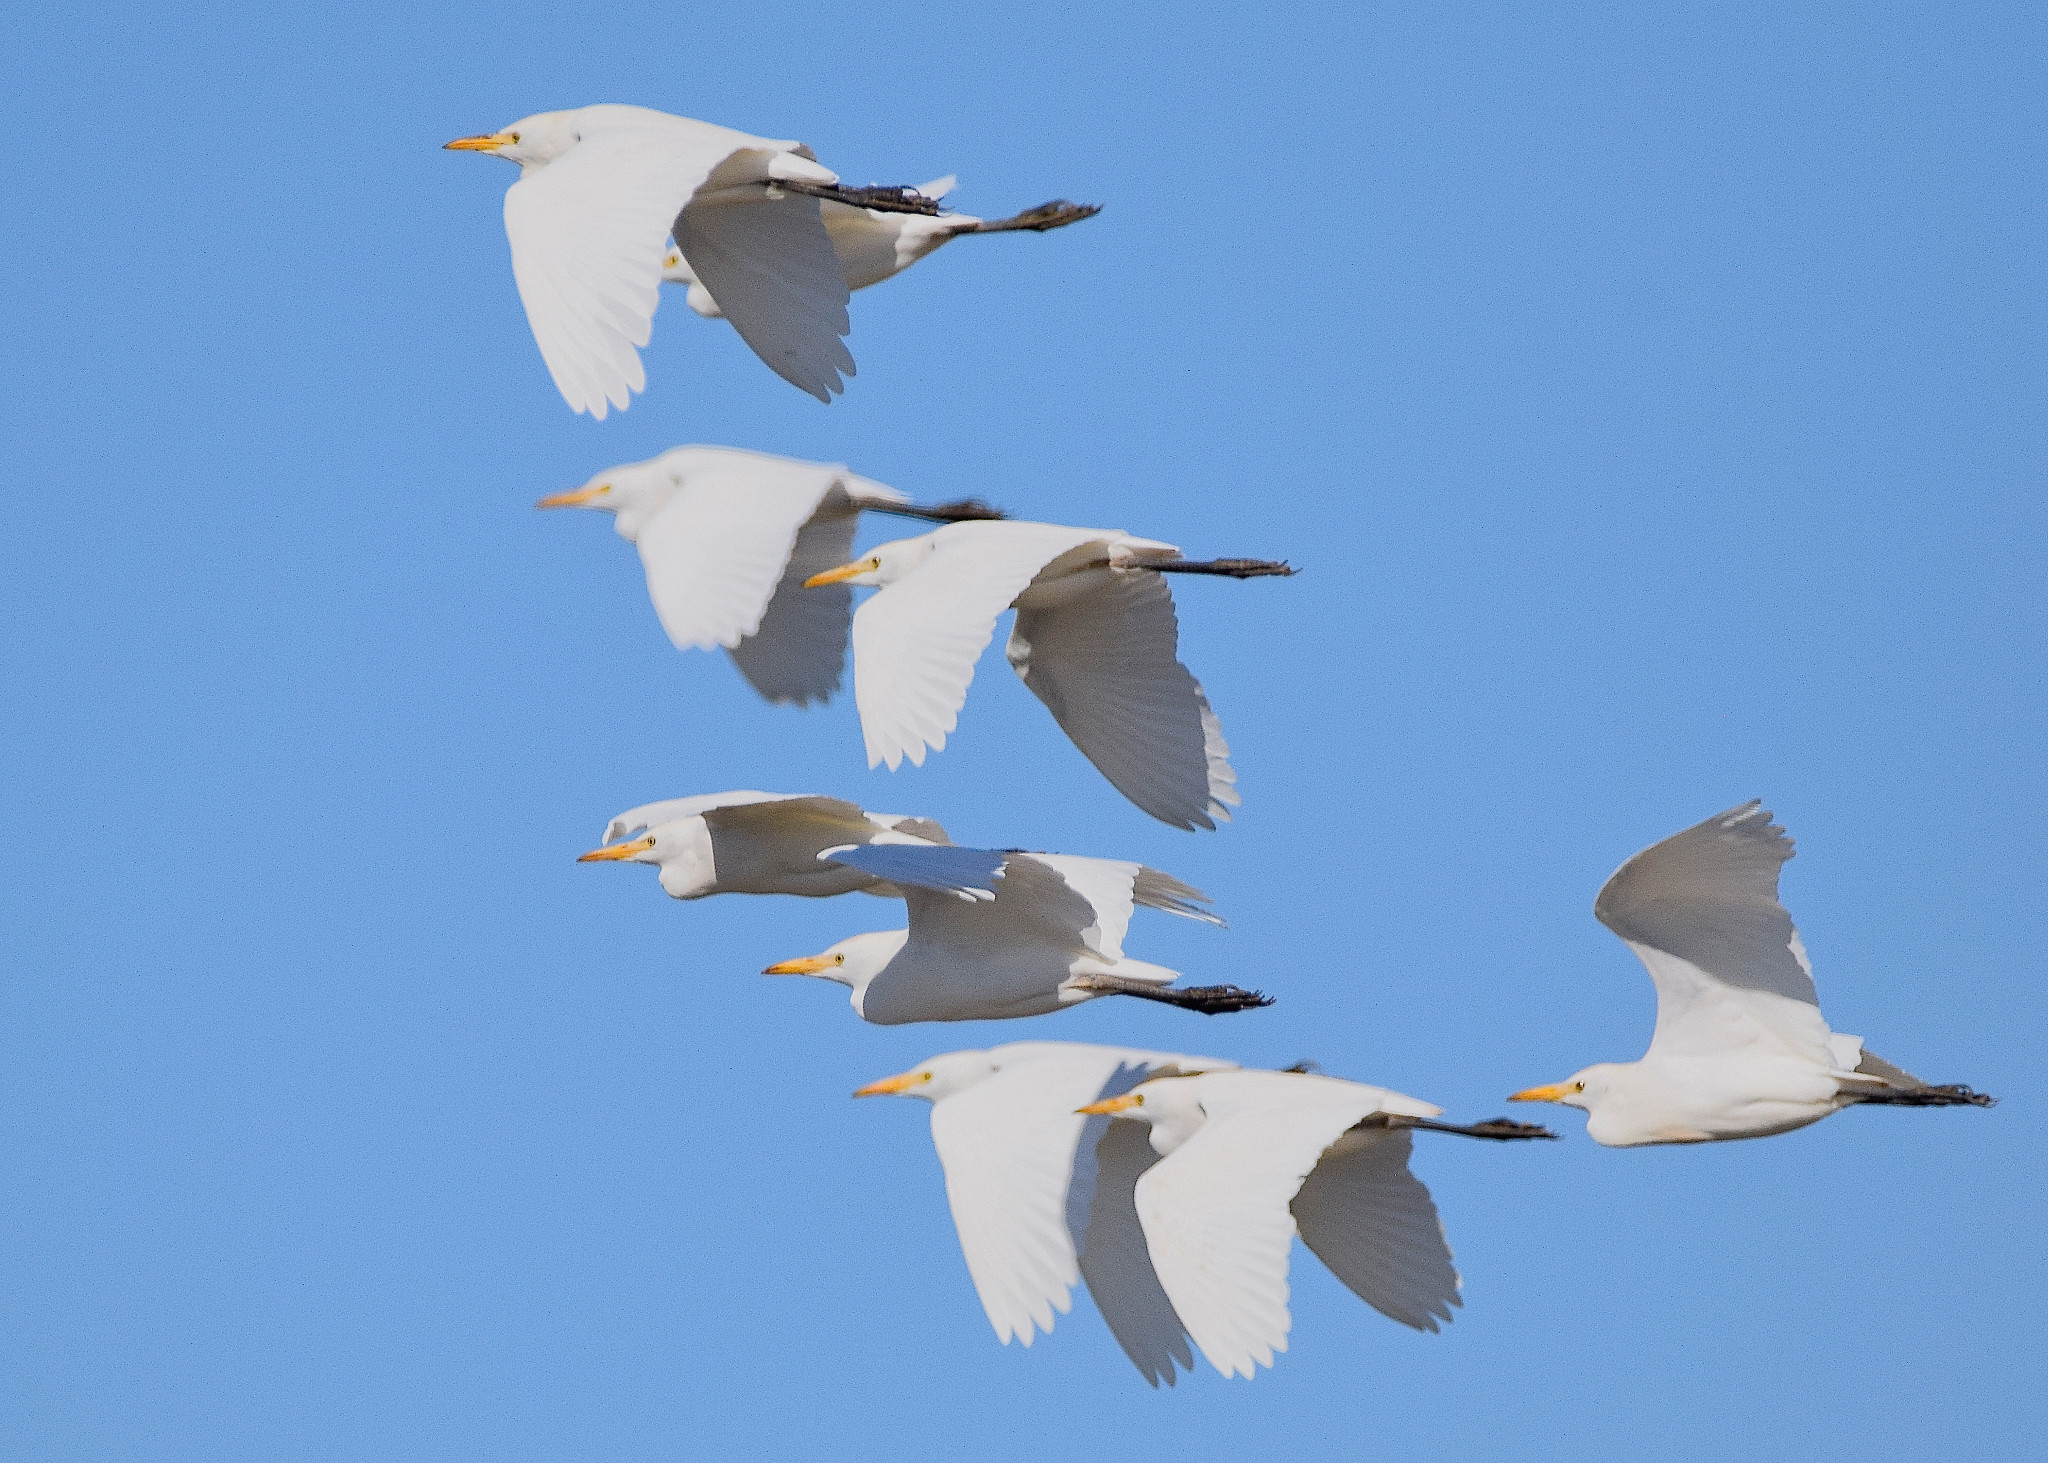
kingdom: Animalia
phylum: Chordata
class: Aves
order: Pelecaniformes
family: Ardeidae
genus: Bubulcus
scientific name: Bubulcus ibis
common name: Cattle egret
